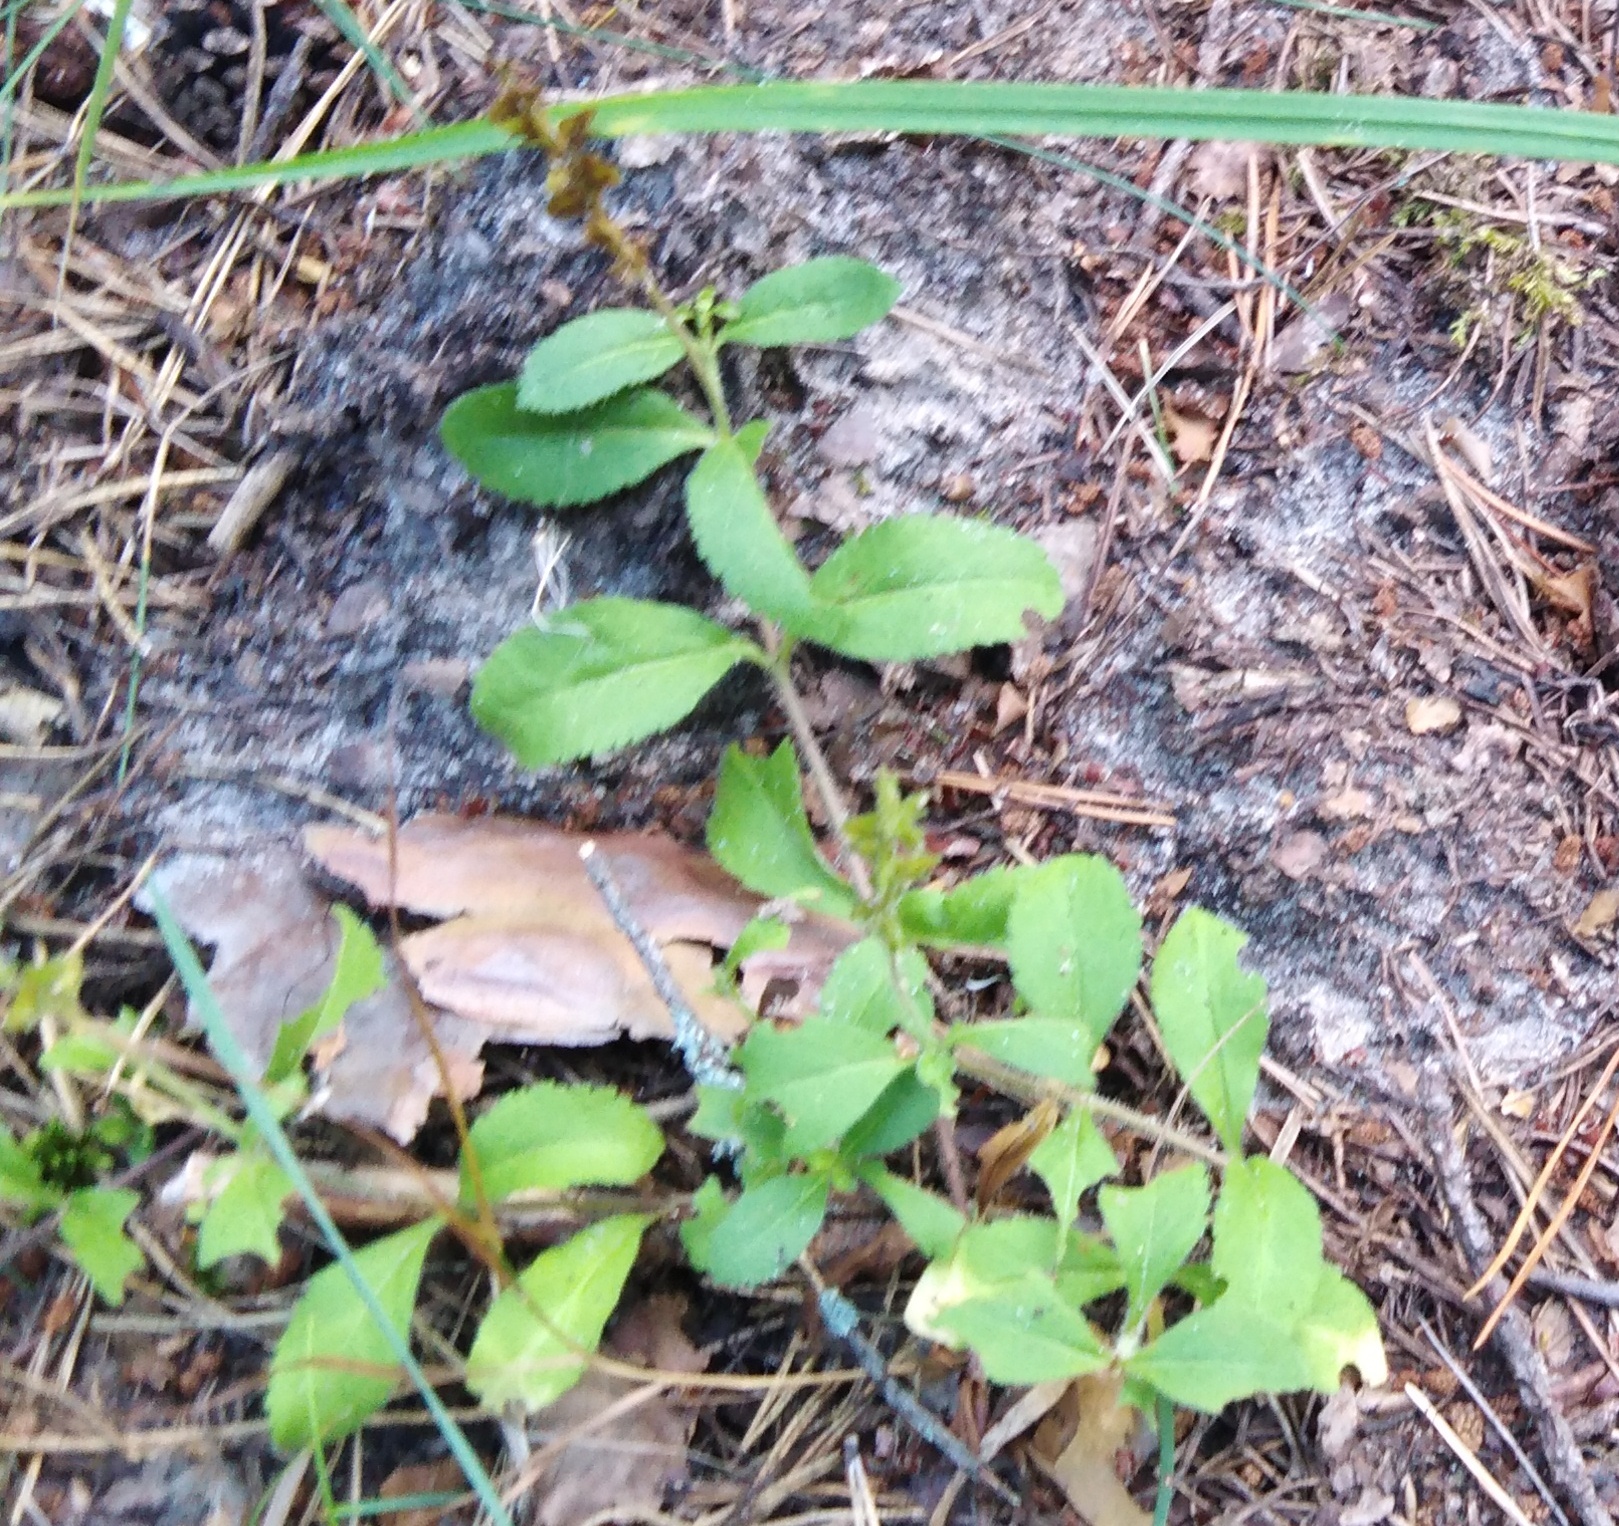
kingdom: Plantae
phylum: Tracheophyta
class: Magnoliopsida
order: Lamiales
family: Plantaginaceae
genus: Veronica
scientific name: Veronica officinalis
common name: Common speedwell
